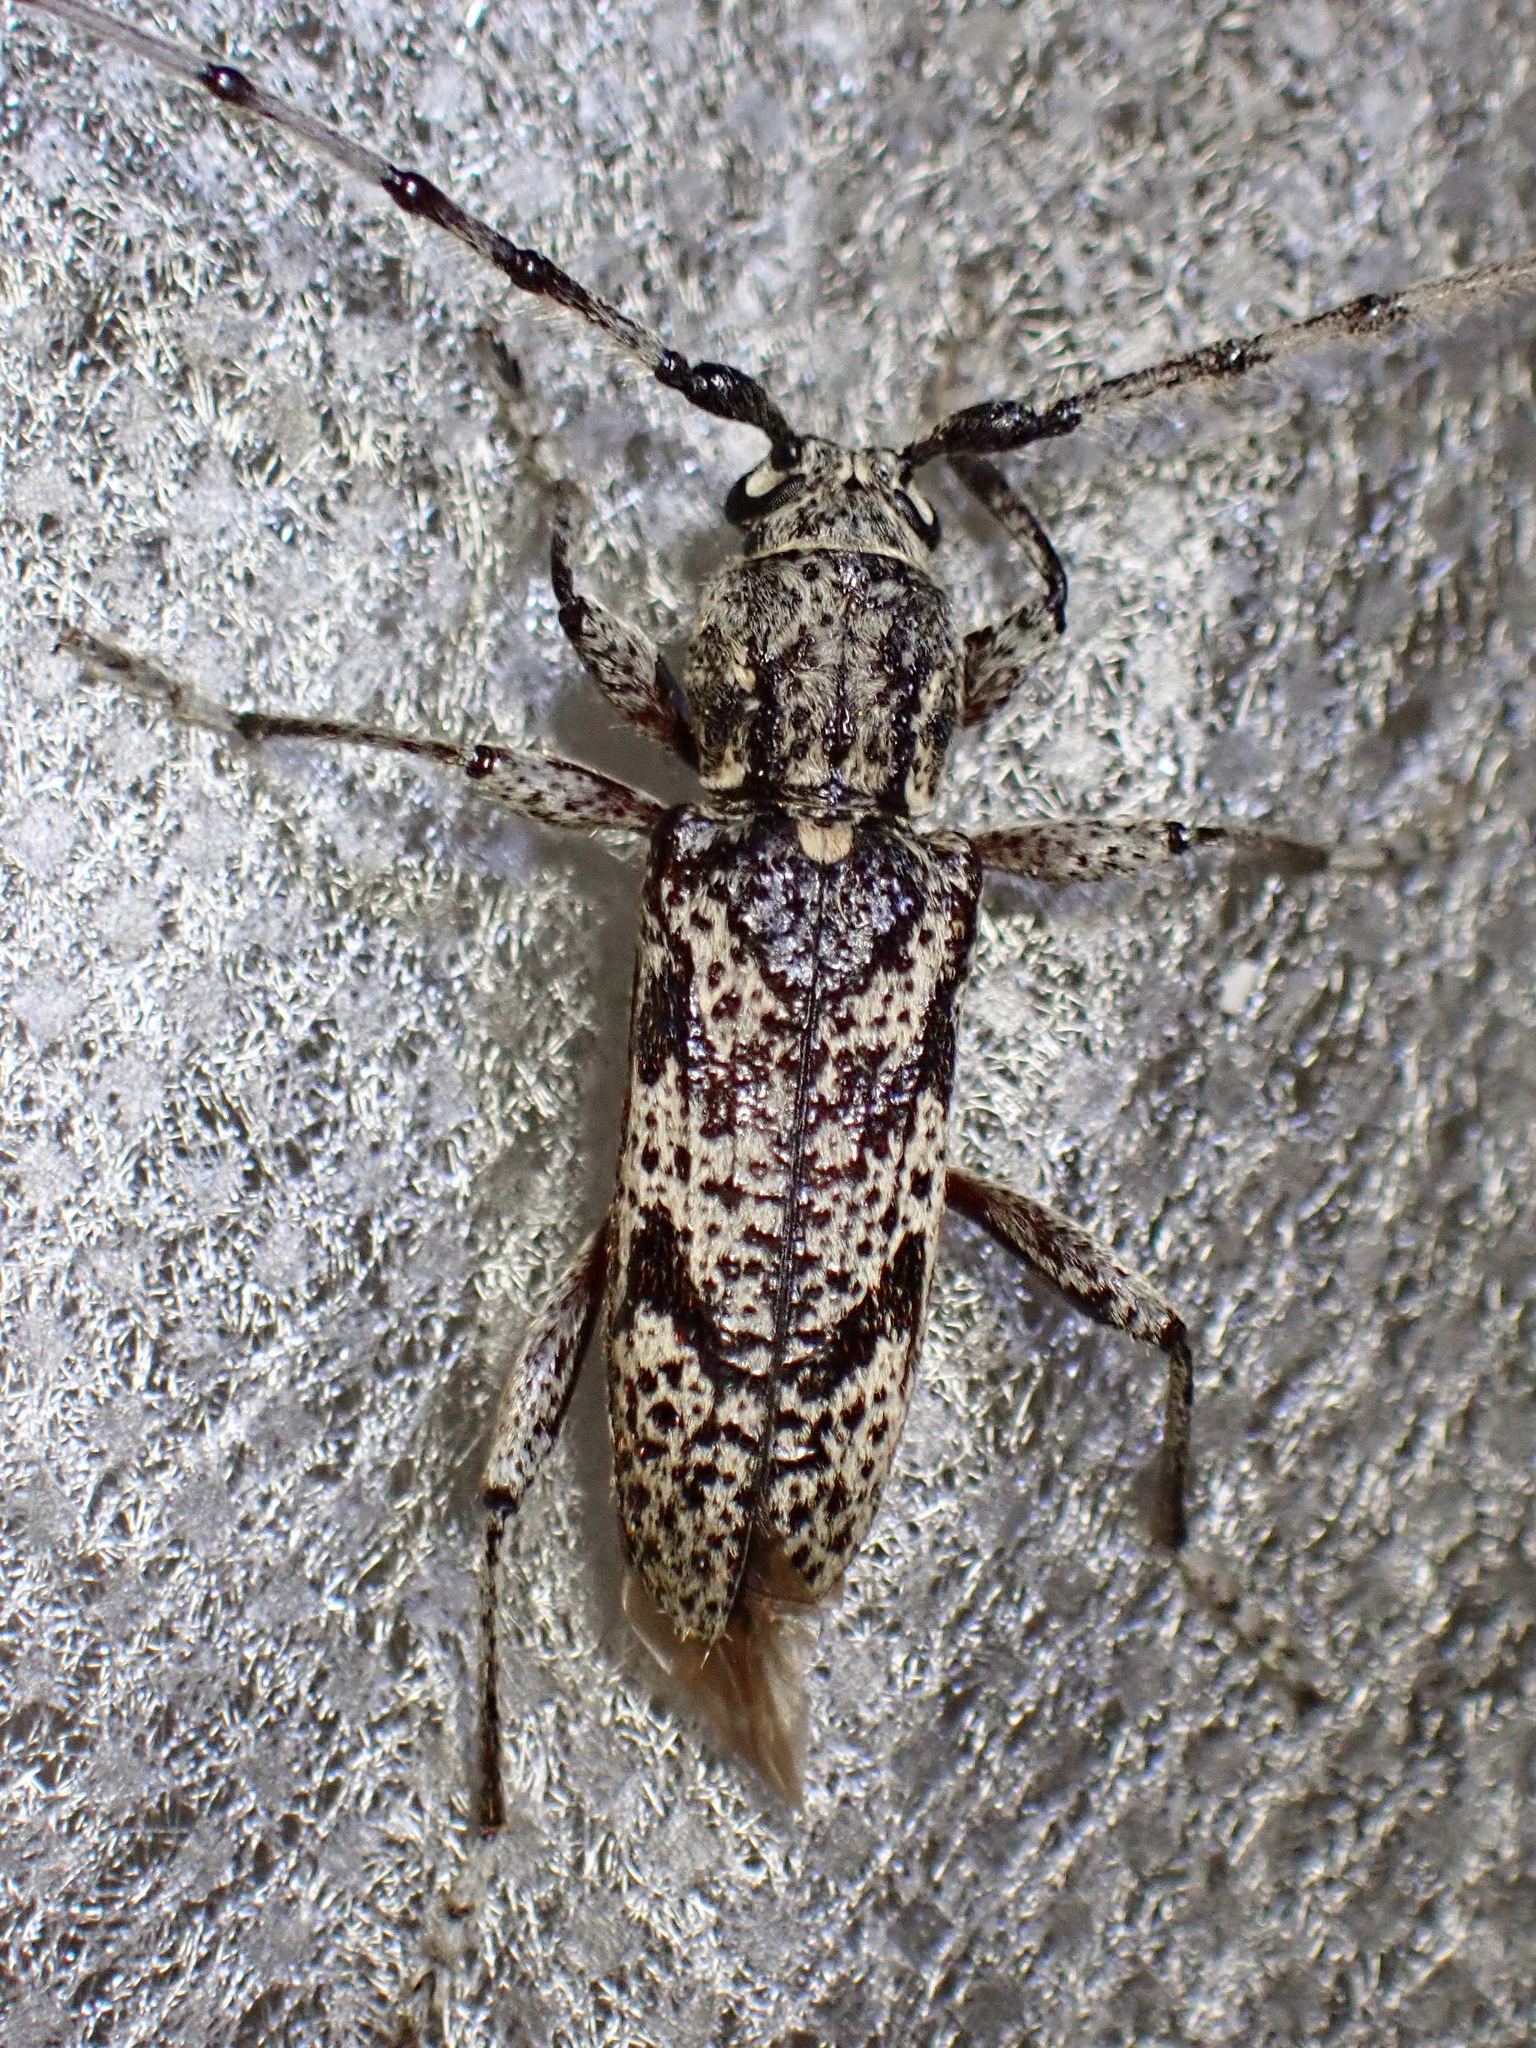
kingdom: Animalia
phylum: Arthropoda
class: Insecta
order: Coleoptera
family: Cerambycidae
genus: Brothylus
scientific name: Brothylus conspersus
